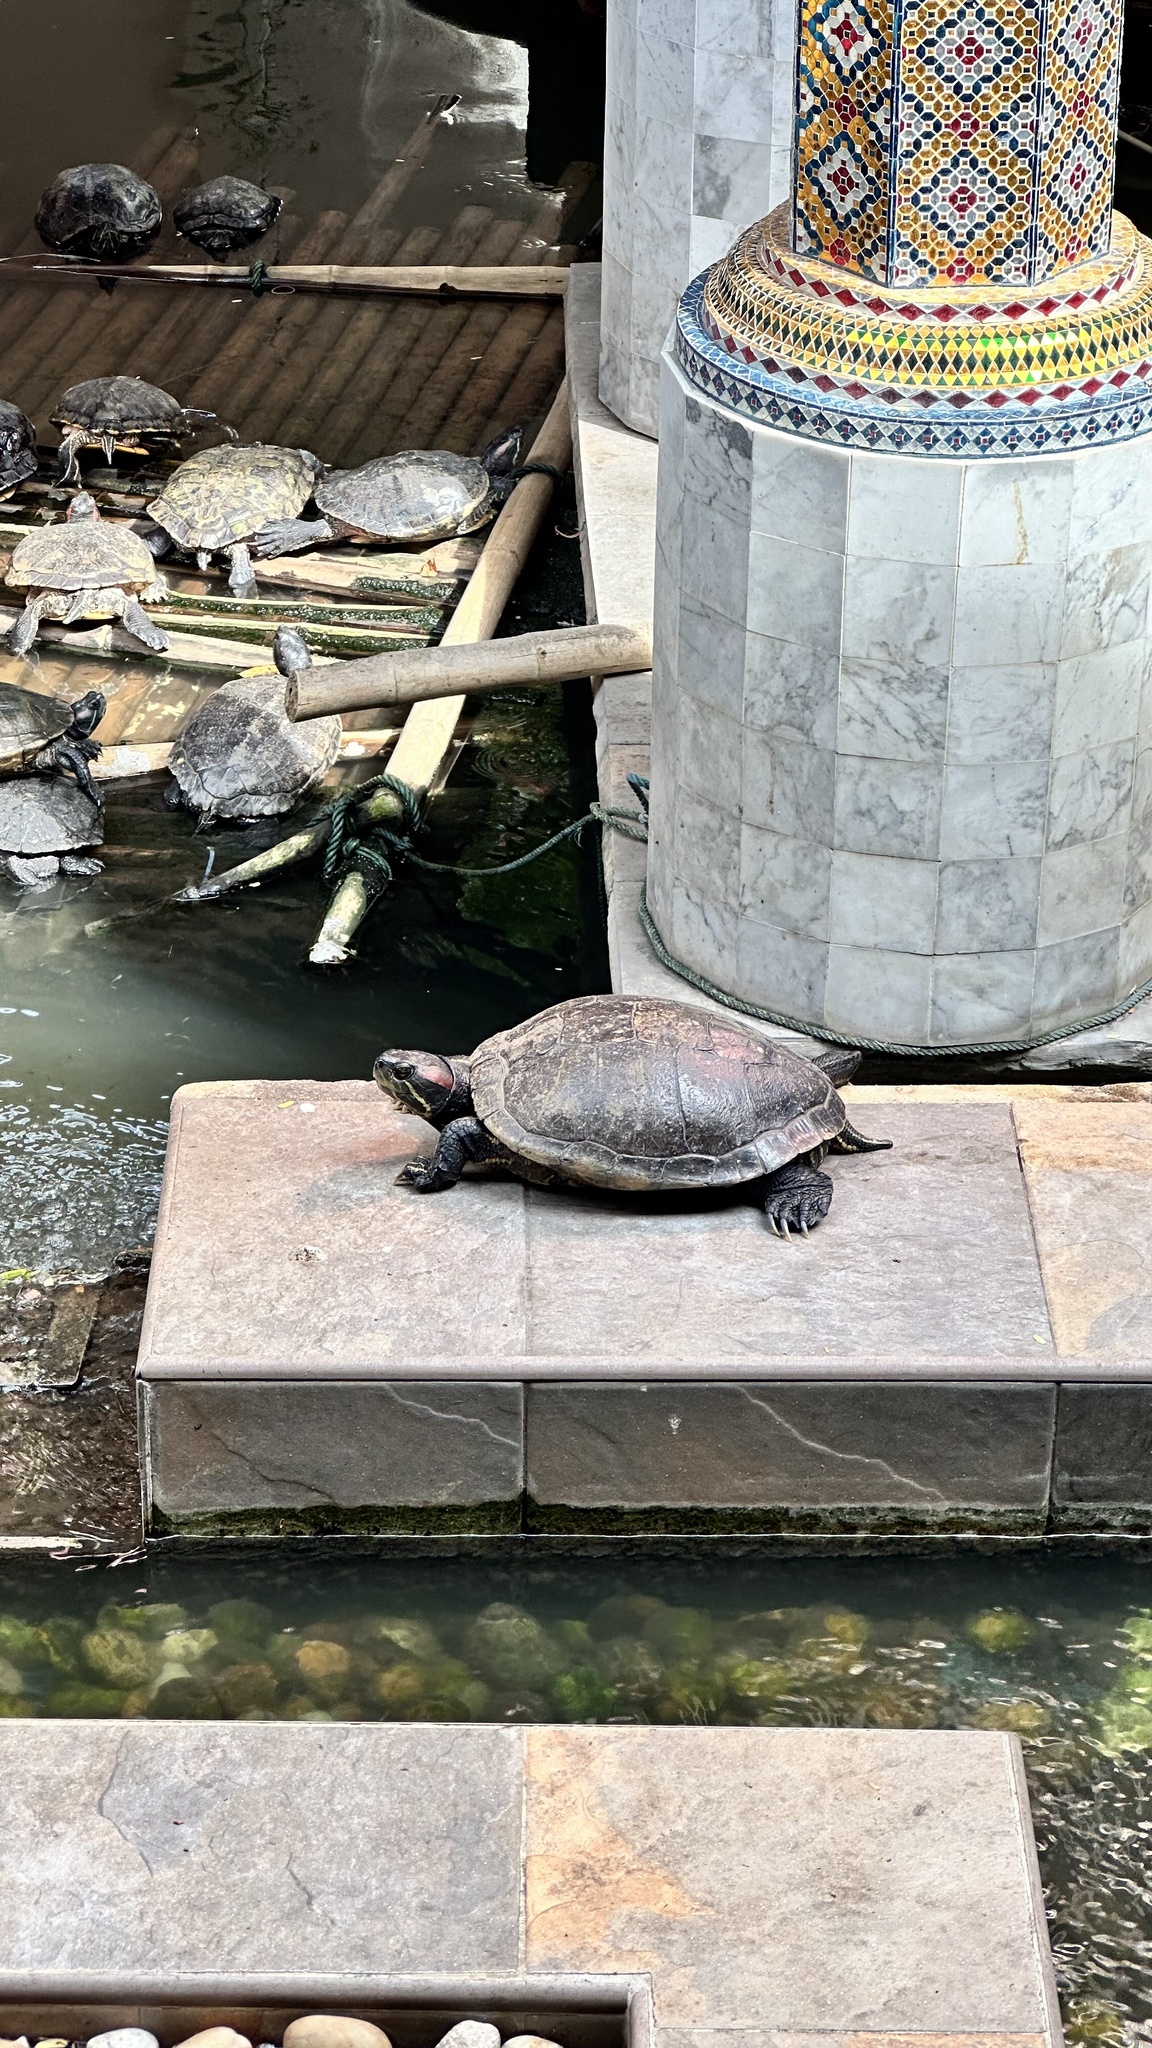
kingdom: Animalia
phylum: Chordata
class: Testudines
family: Emydidae
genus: Trachemys
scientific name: Trachemys scripta
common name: Slider
